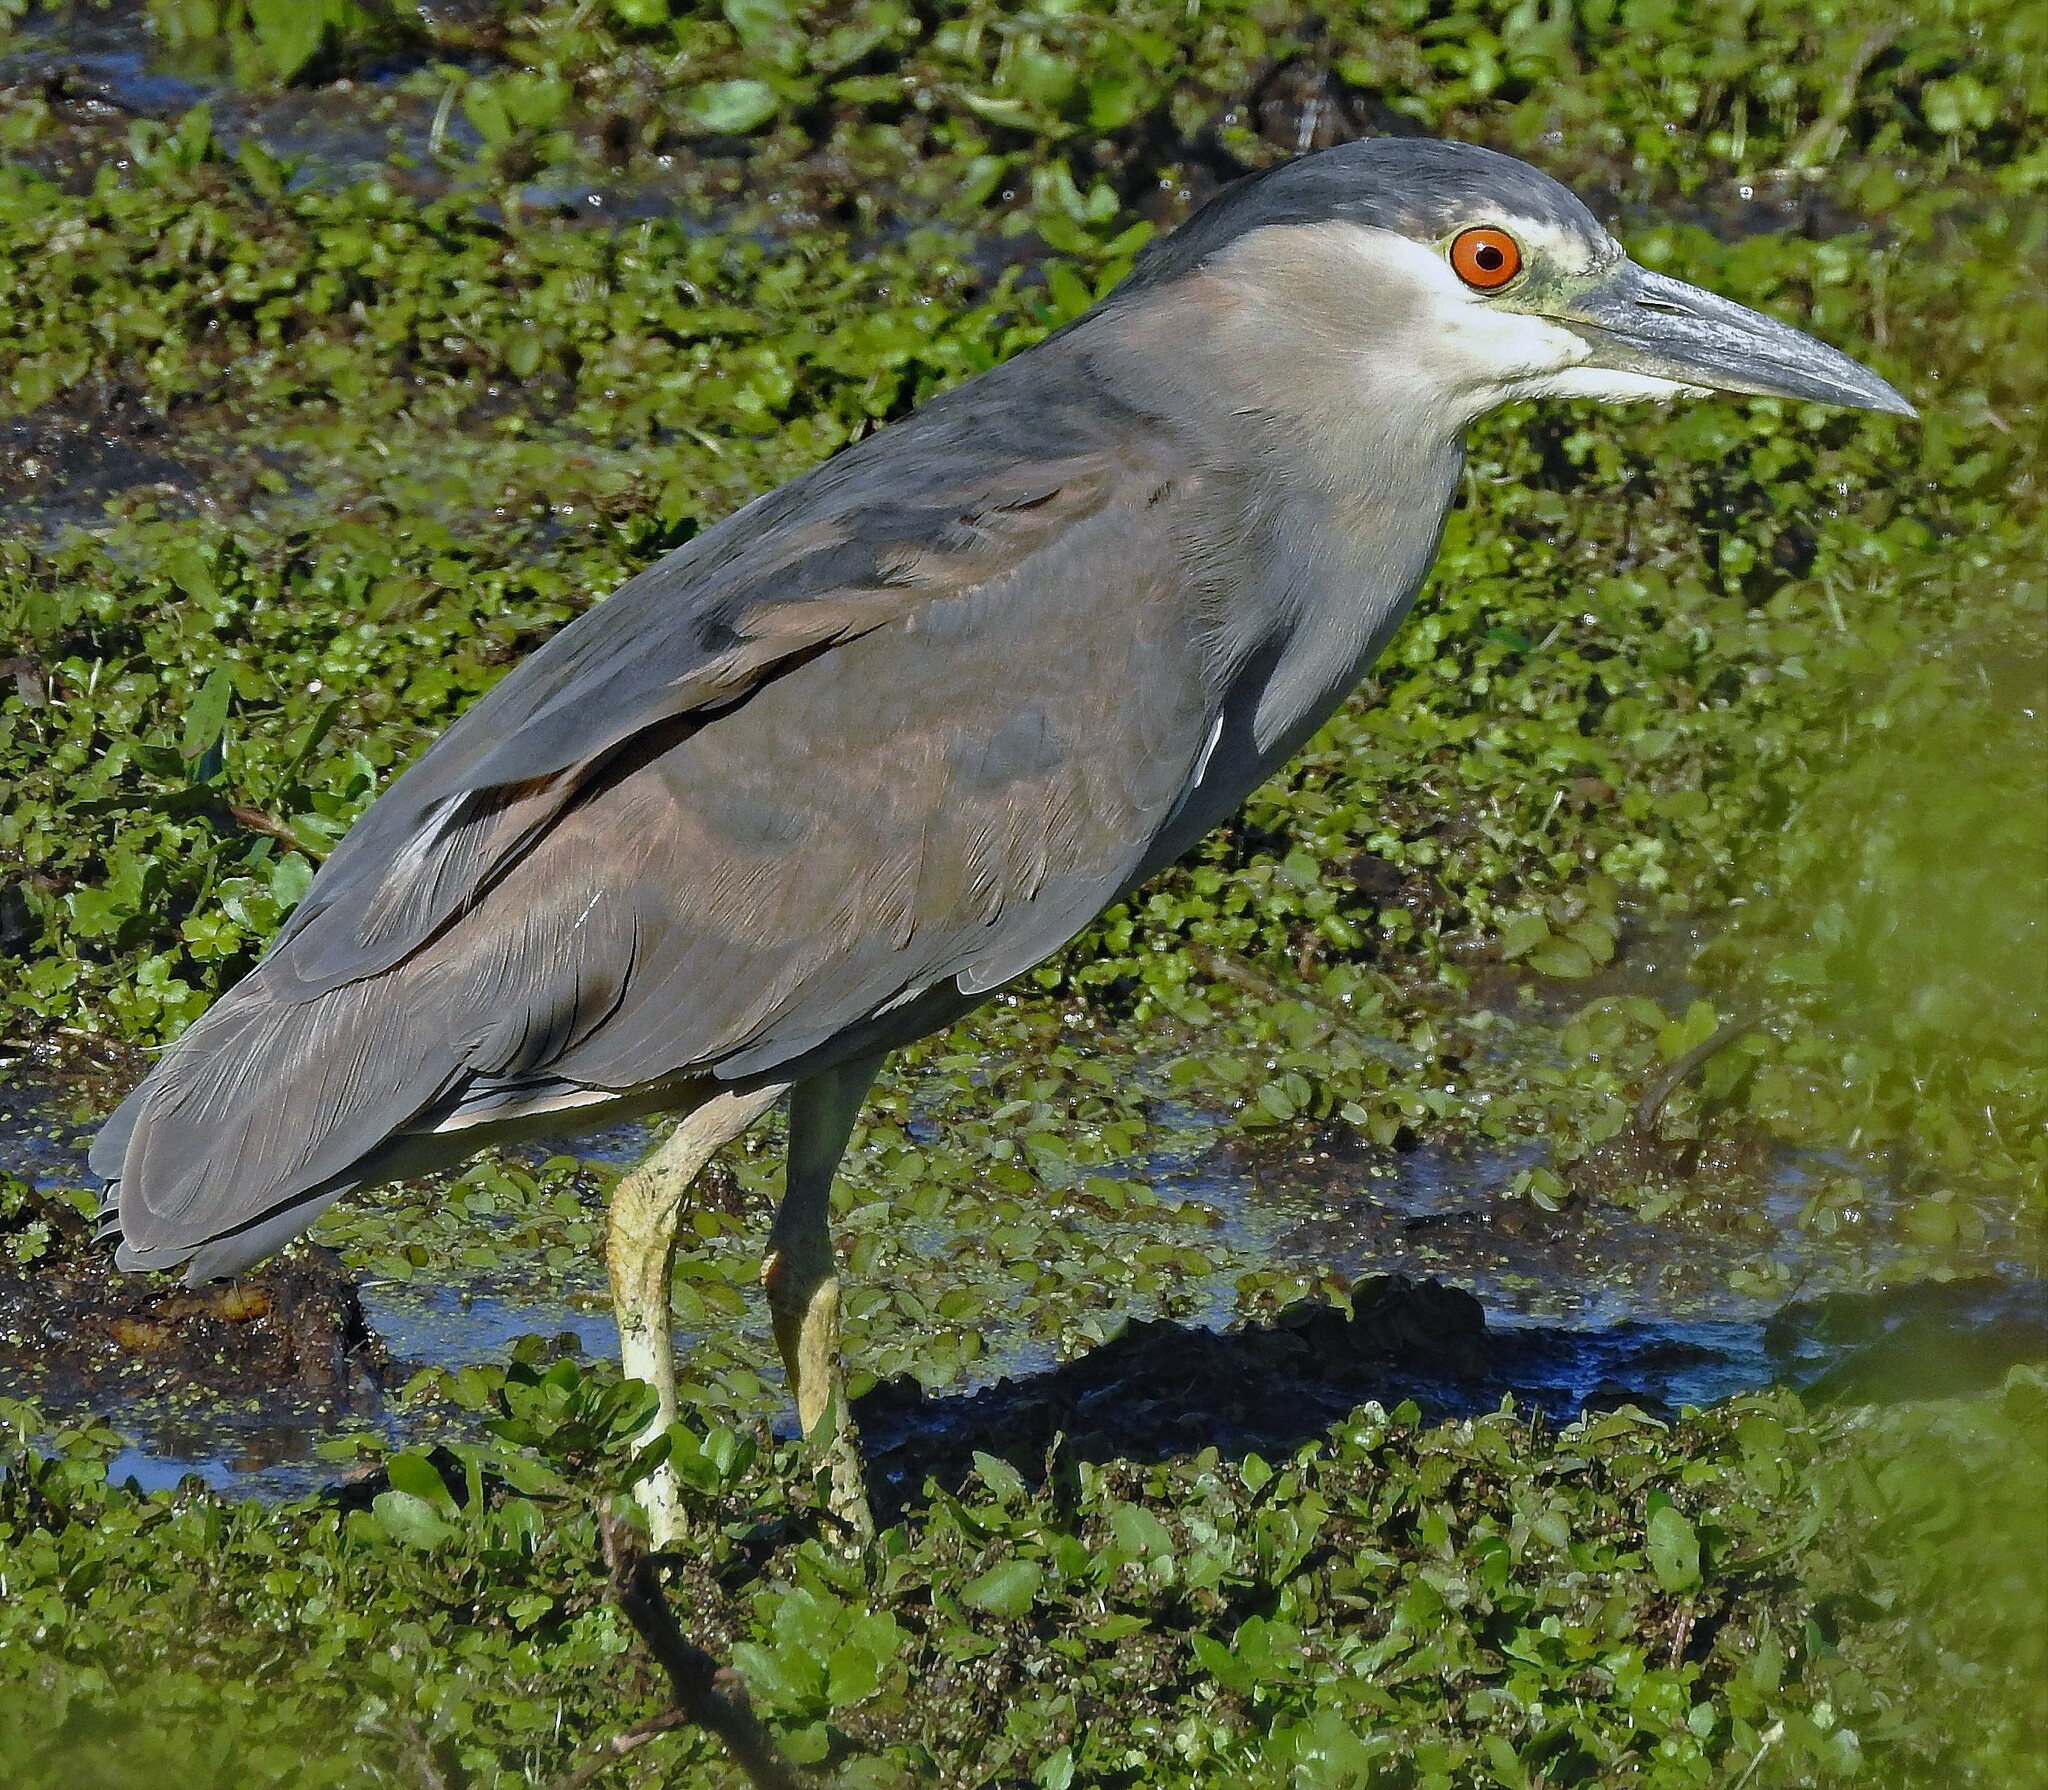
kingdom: Animalia
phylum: Chordata
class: Aves
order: Pelecaniformes
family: Ardeidae
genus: Nycticorax
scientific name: Nycticorax nycticorax
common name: Black-crowned night heron
